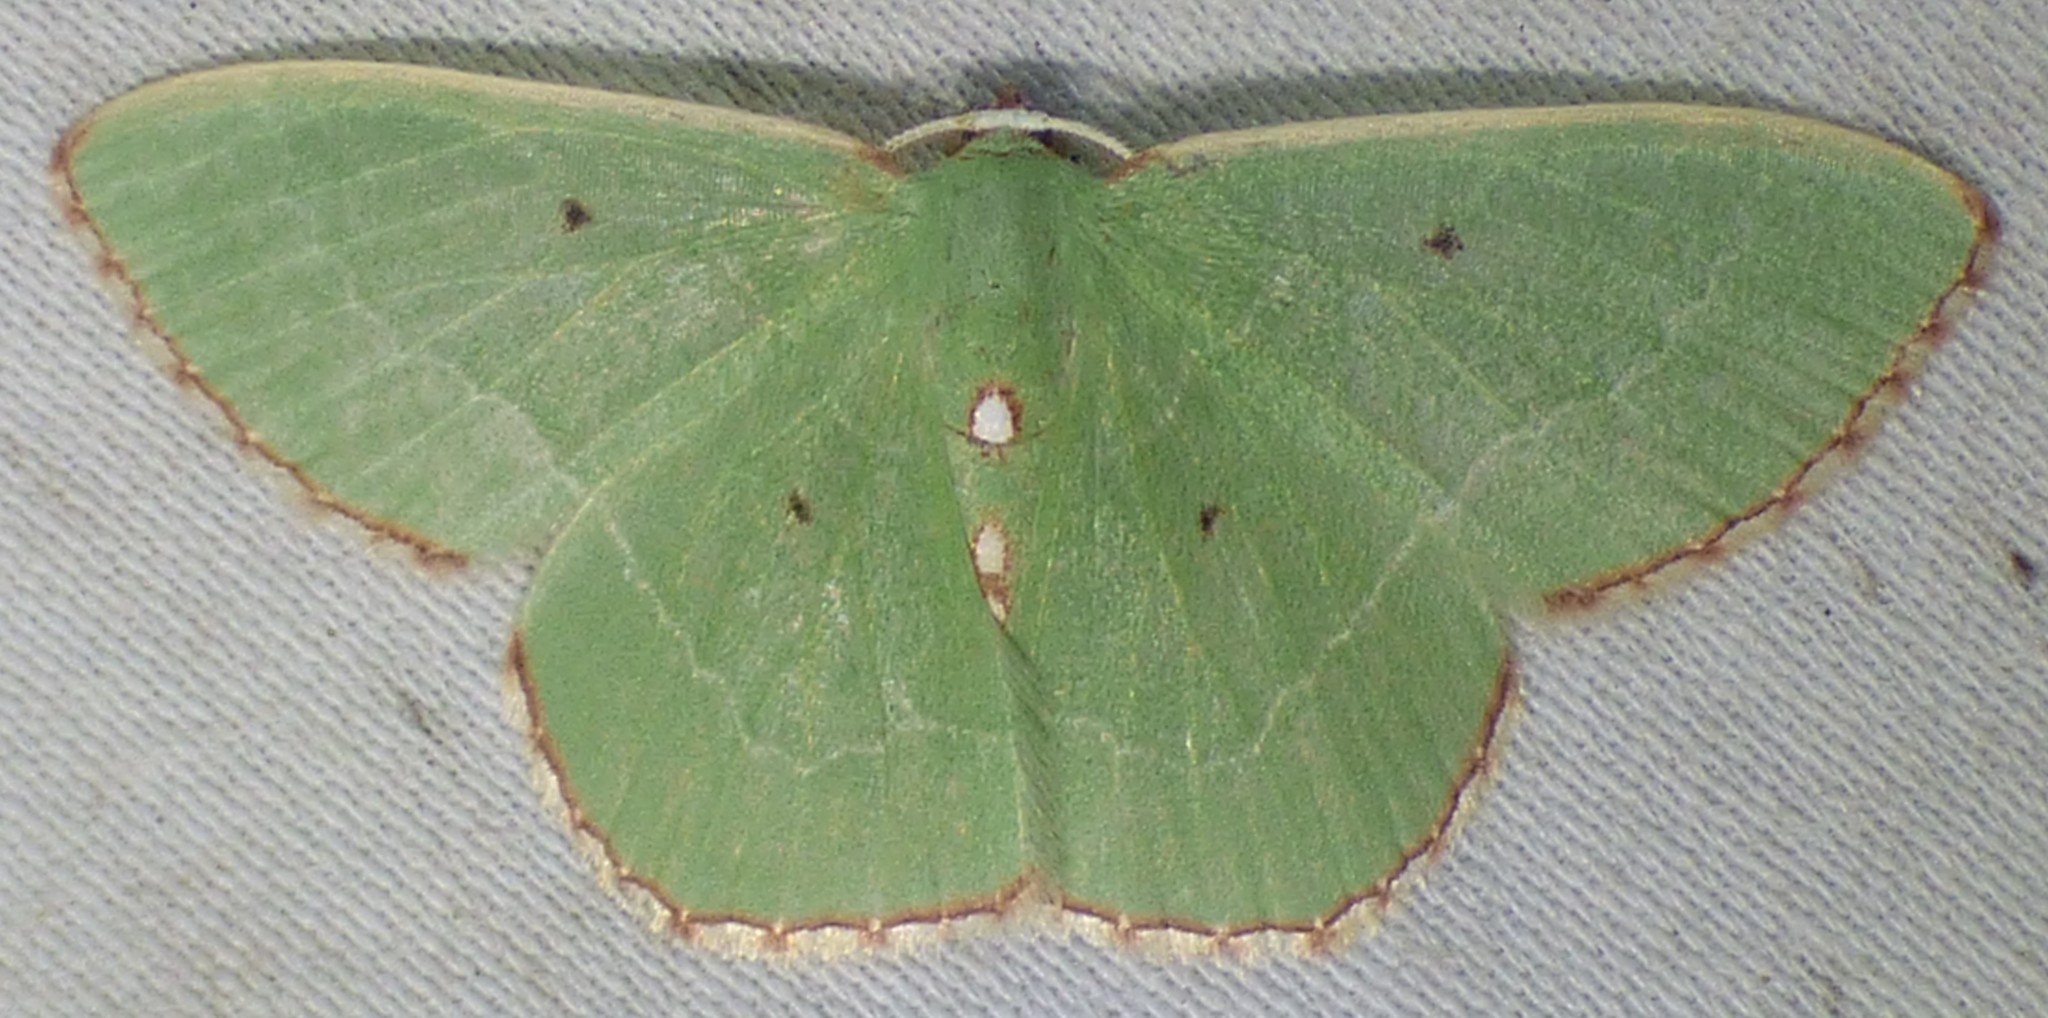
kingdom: Animalia
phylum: Arthropoda
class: Insecta
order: Lepidoptera
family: Geometridae
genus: Nemoria
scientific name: Nemoria lixaria
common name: Red-bordered emerald
